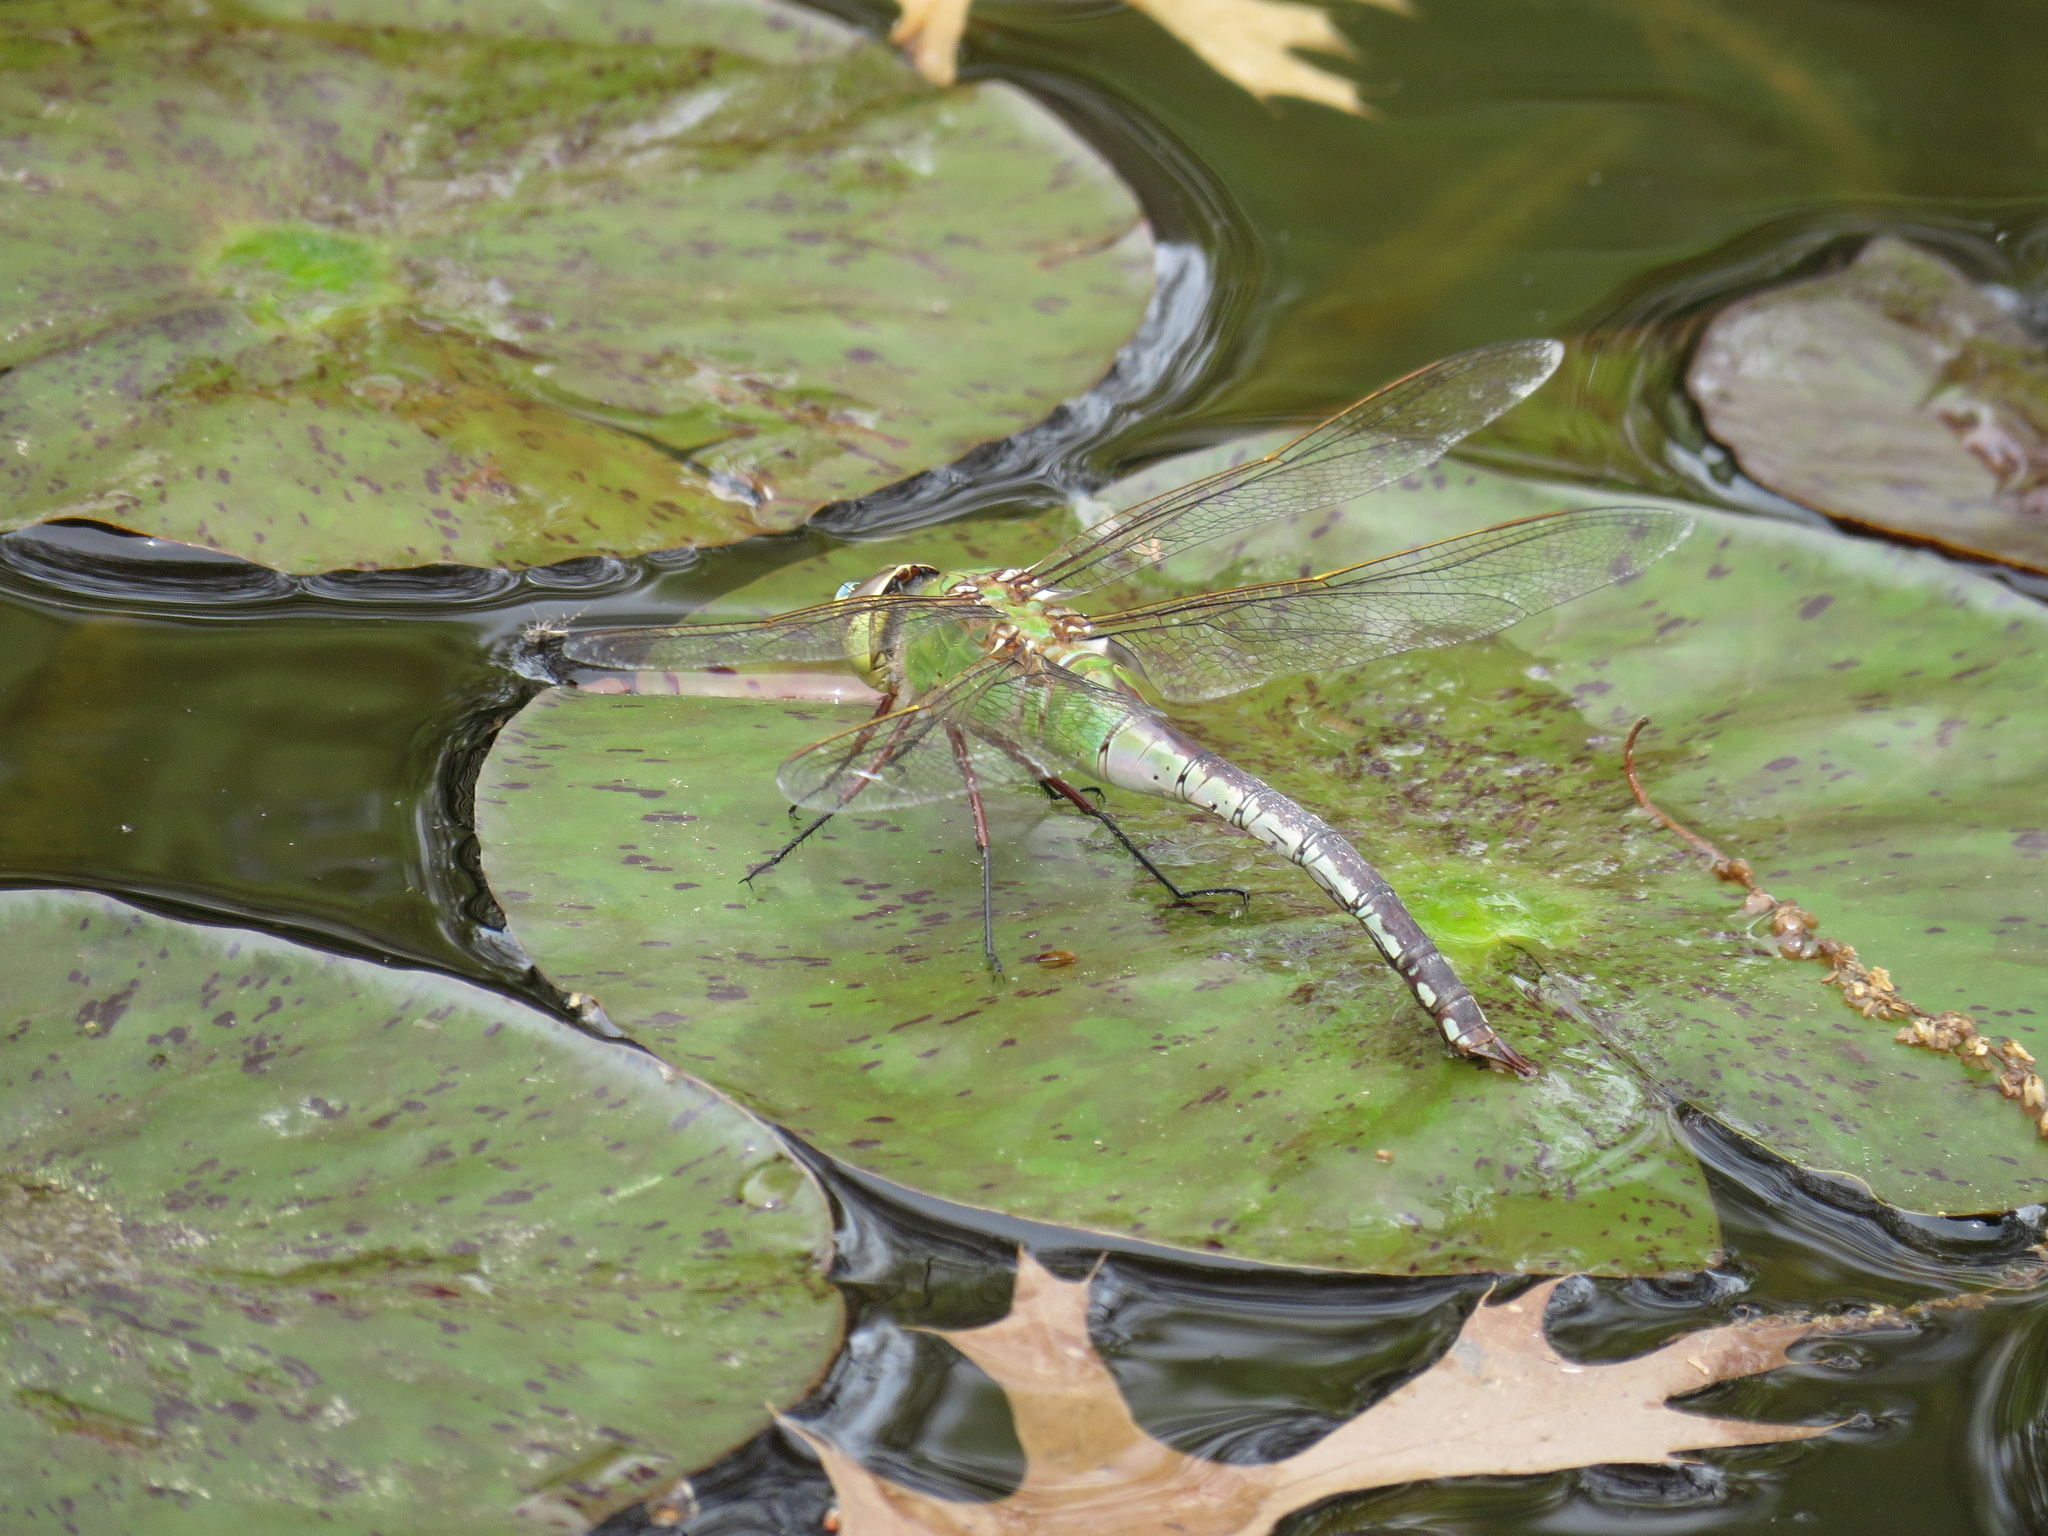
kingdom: Animalia
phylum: Arthropoda
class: Insecta
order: Odonata
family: Aeshnidae
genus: Anax
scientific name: Anax junius
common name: Common green darner
